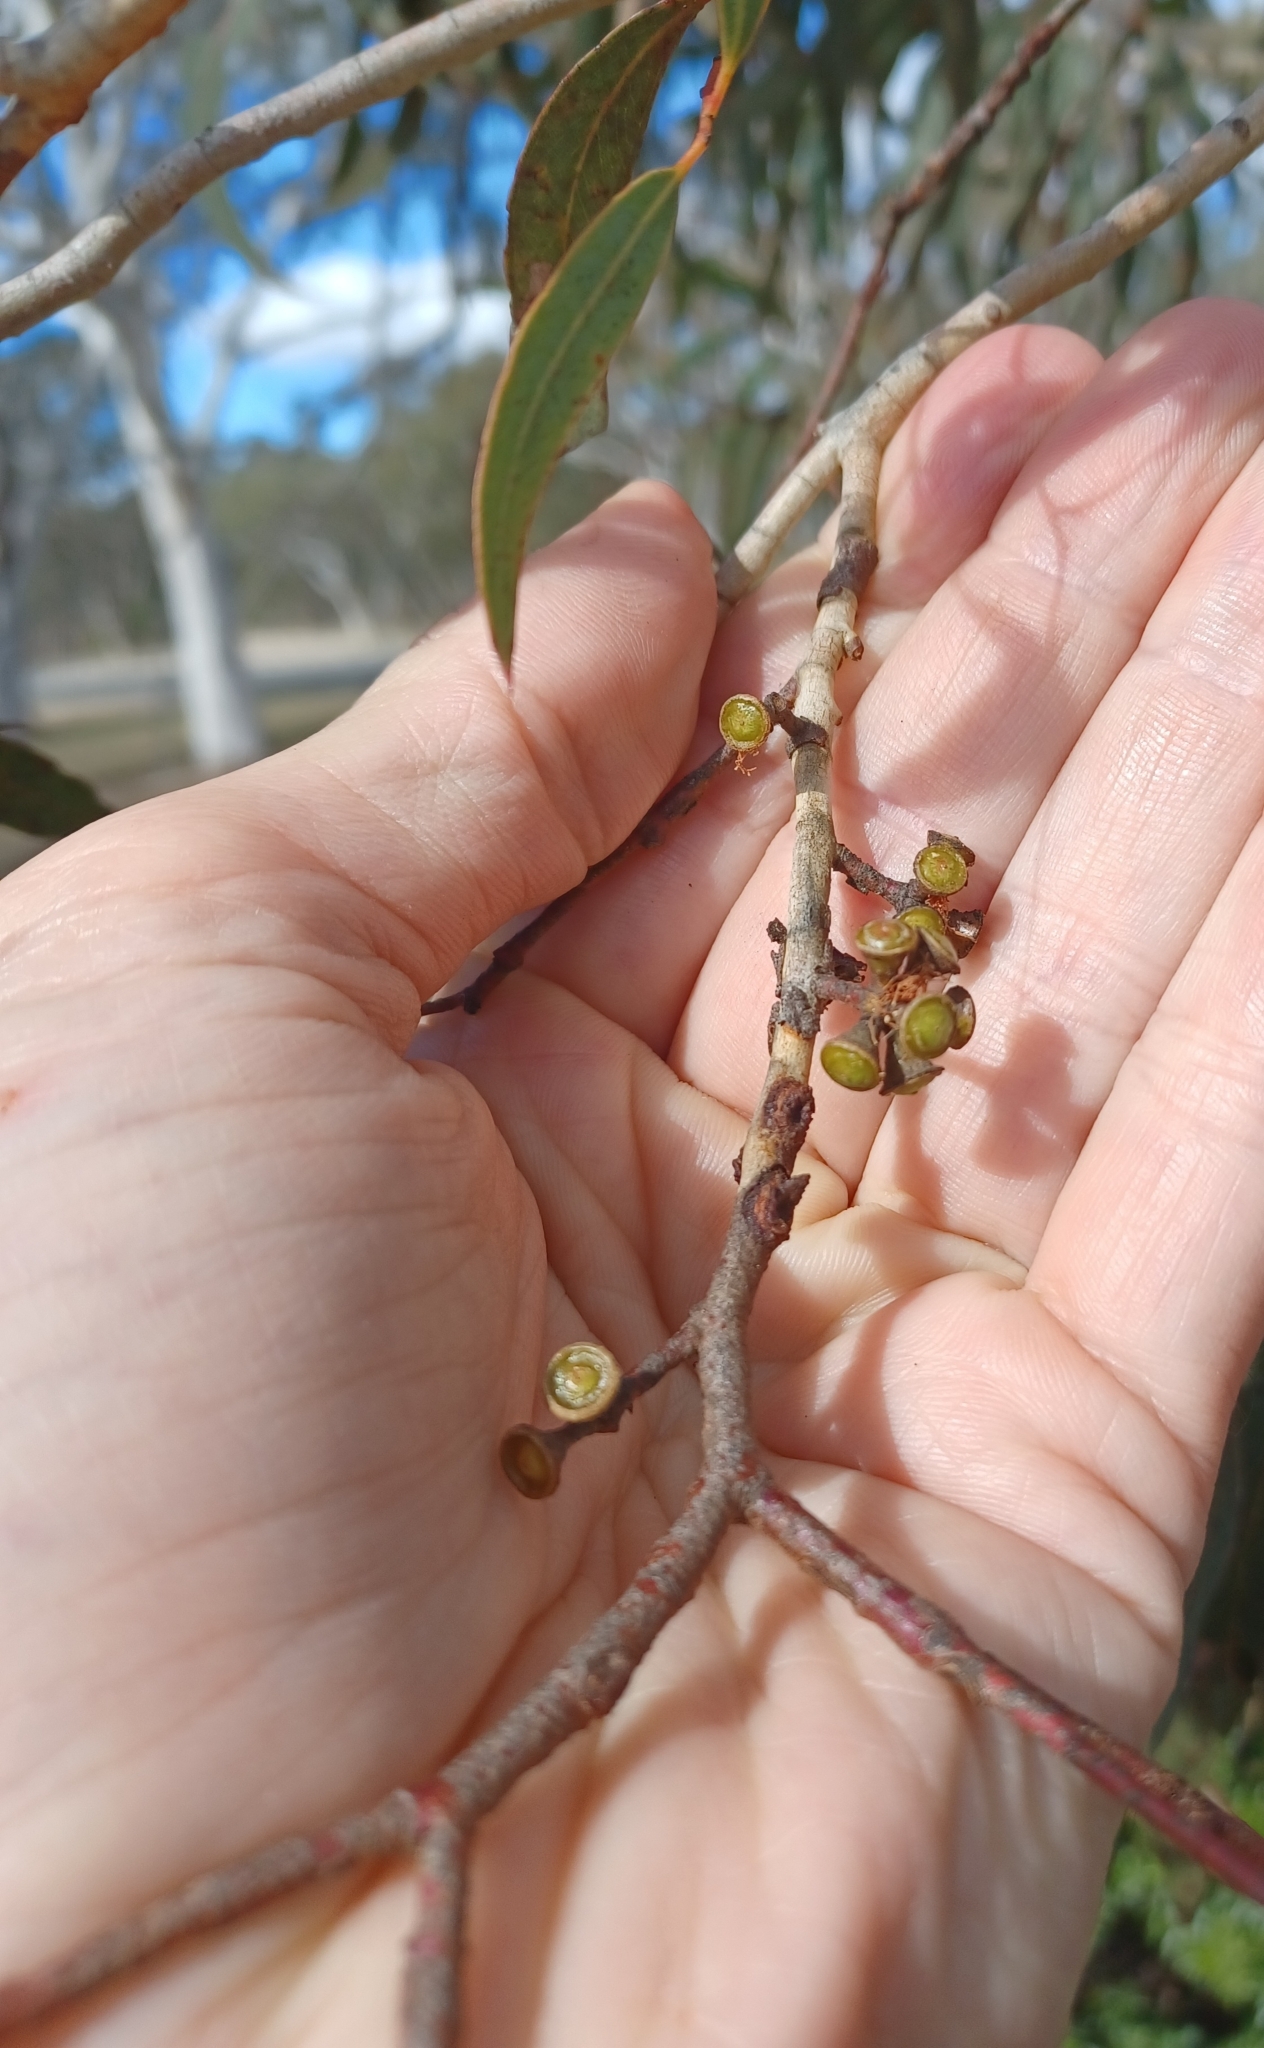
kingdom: Plantae
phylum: Tracheophyta
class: Magnoliopsida
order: Myrtales
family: Myrtaceae
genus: Eucalyptus
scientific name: Eucalyptus mannifera
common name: Manna gum
